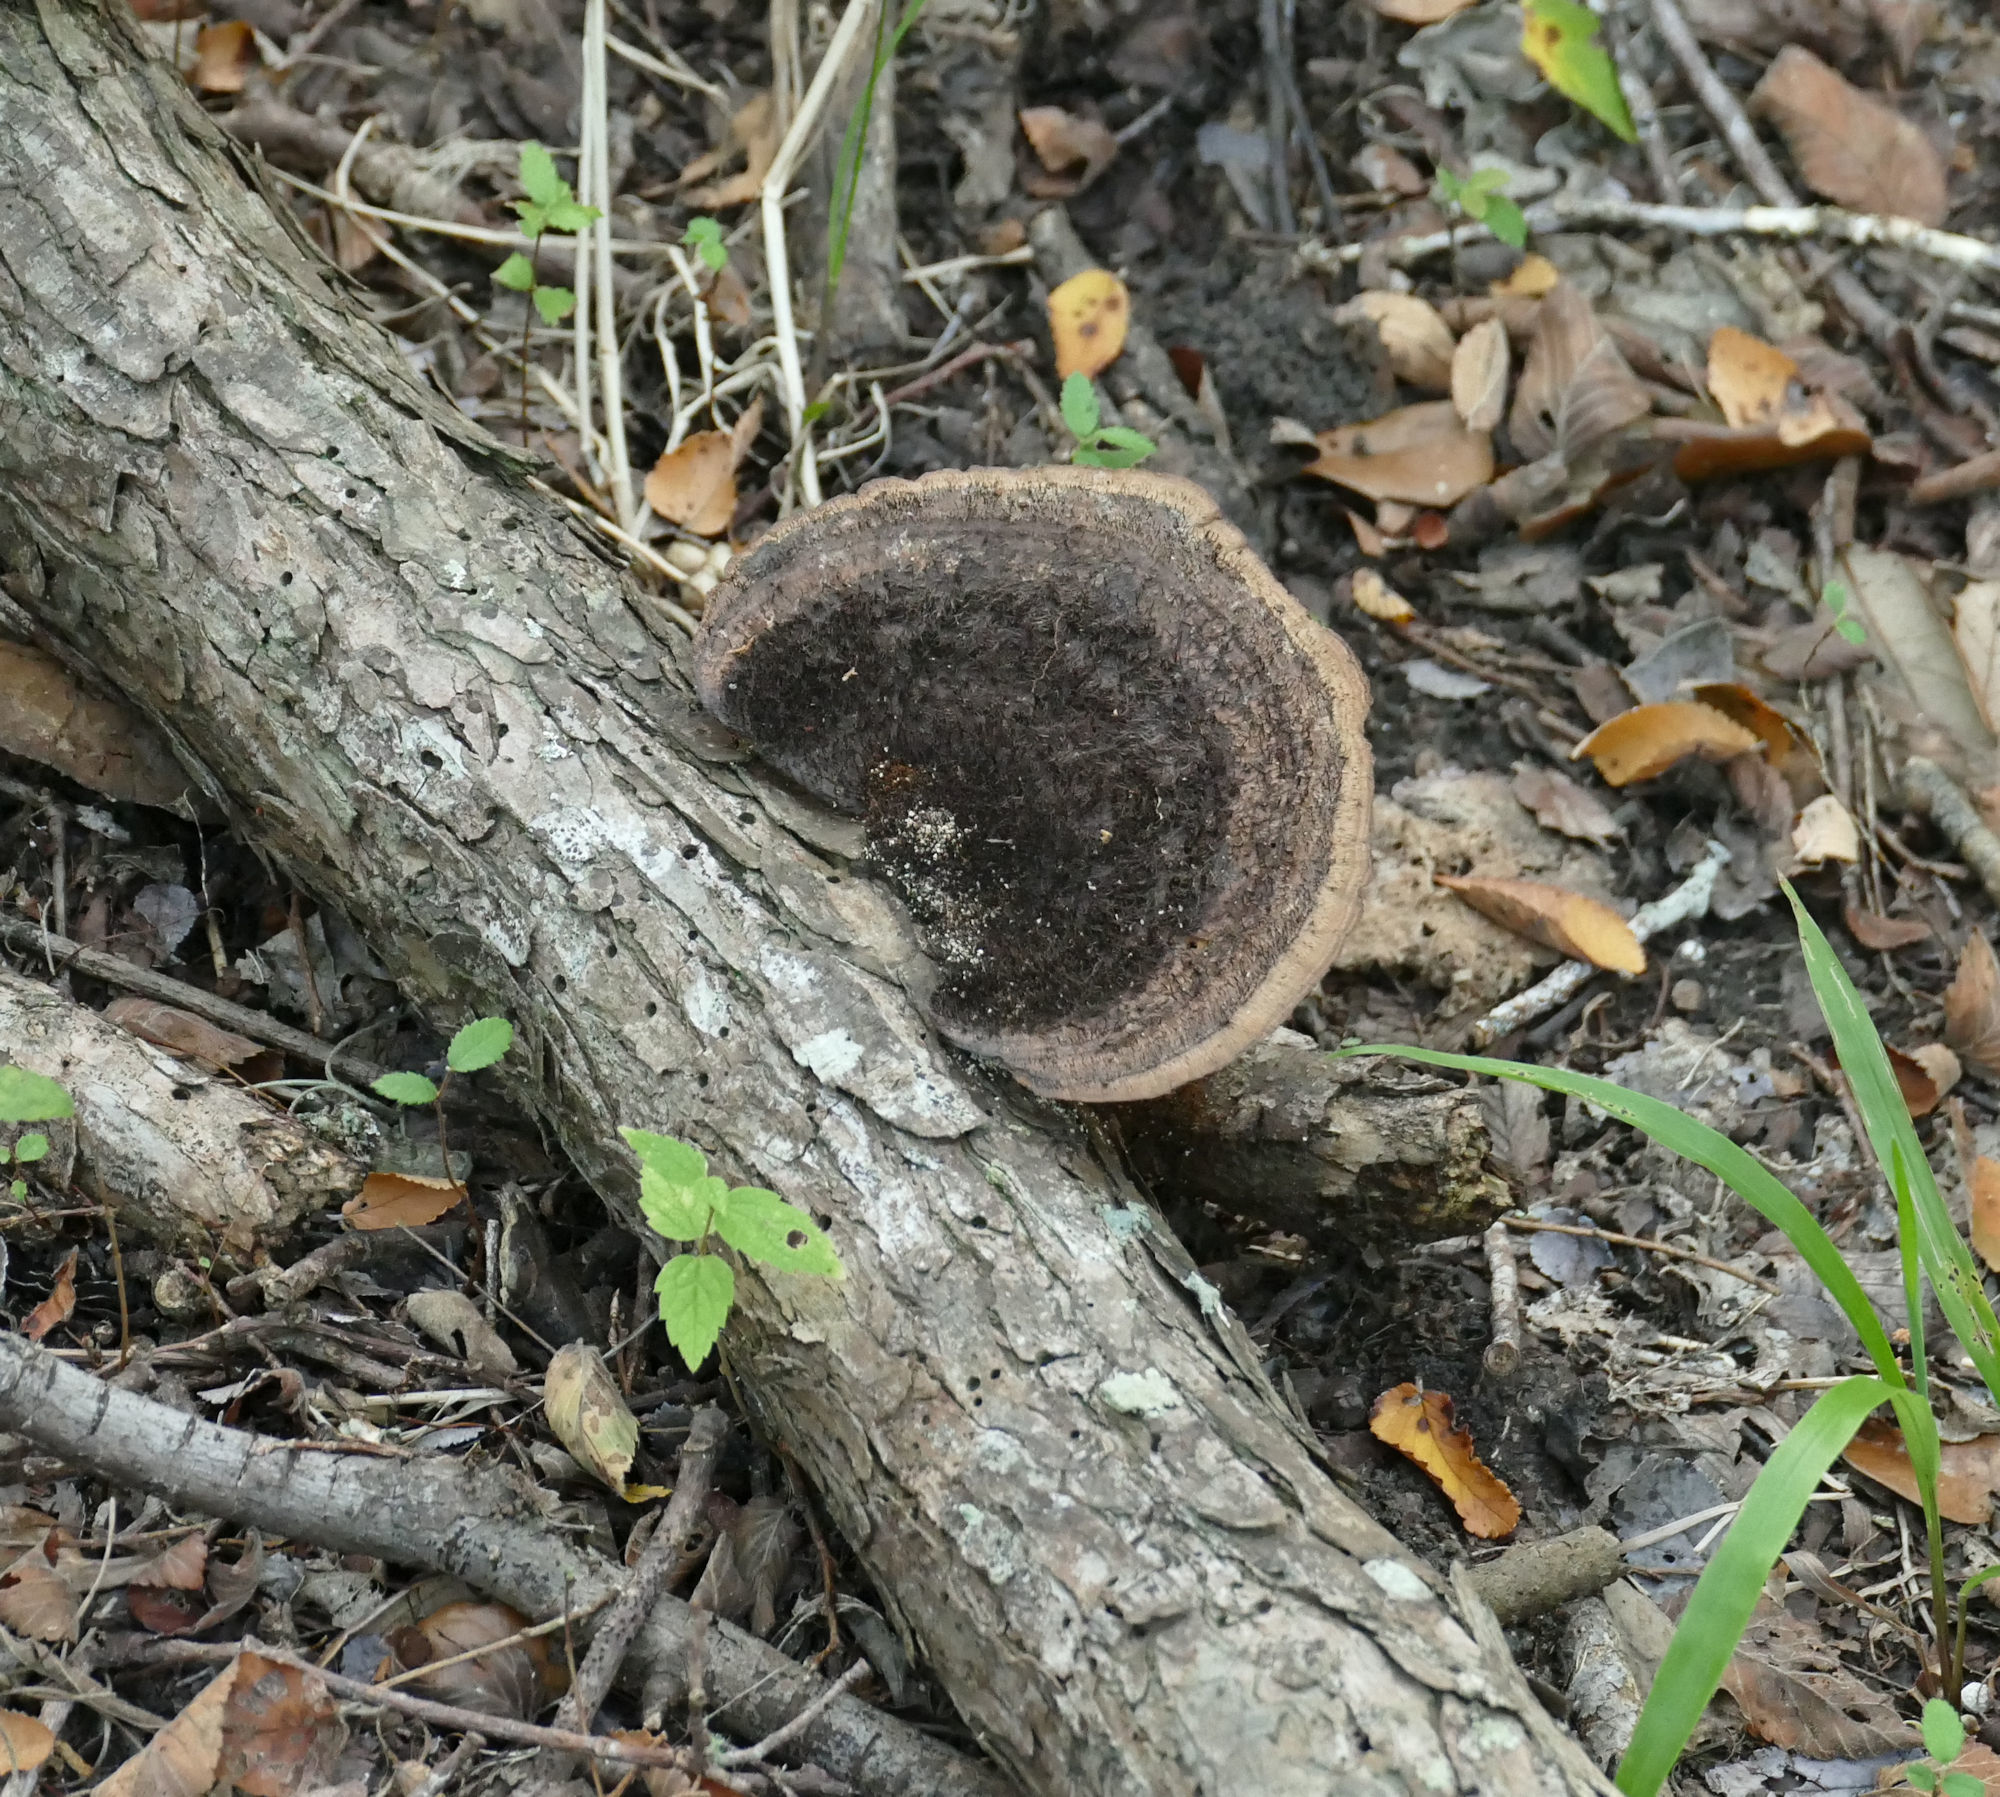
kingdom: Fungi
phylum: Basidiomycota
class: Agaricomycetes
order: Polyporales
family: Cerrenaceae
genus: Cerrena
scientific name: Cerrena hydnoides
